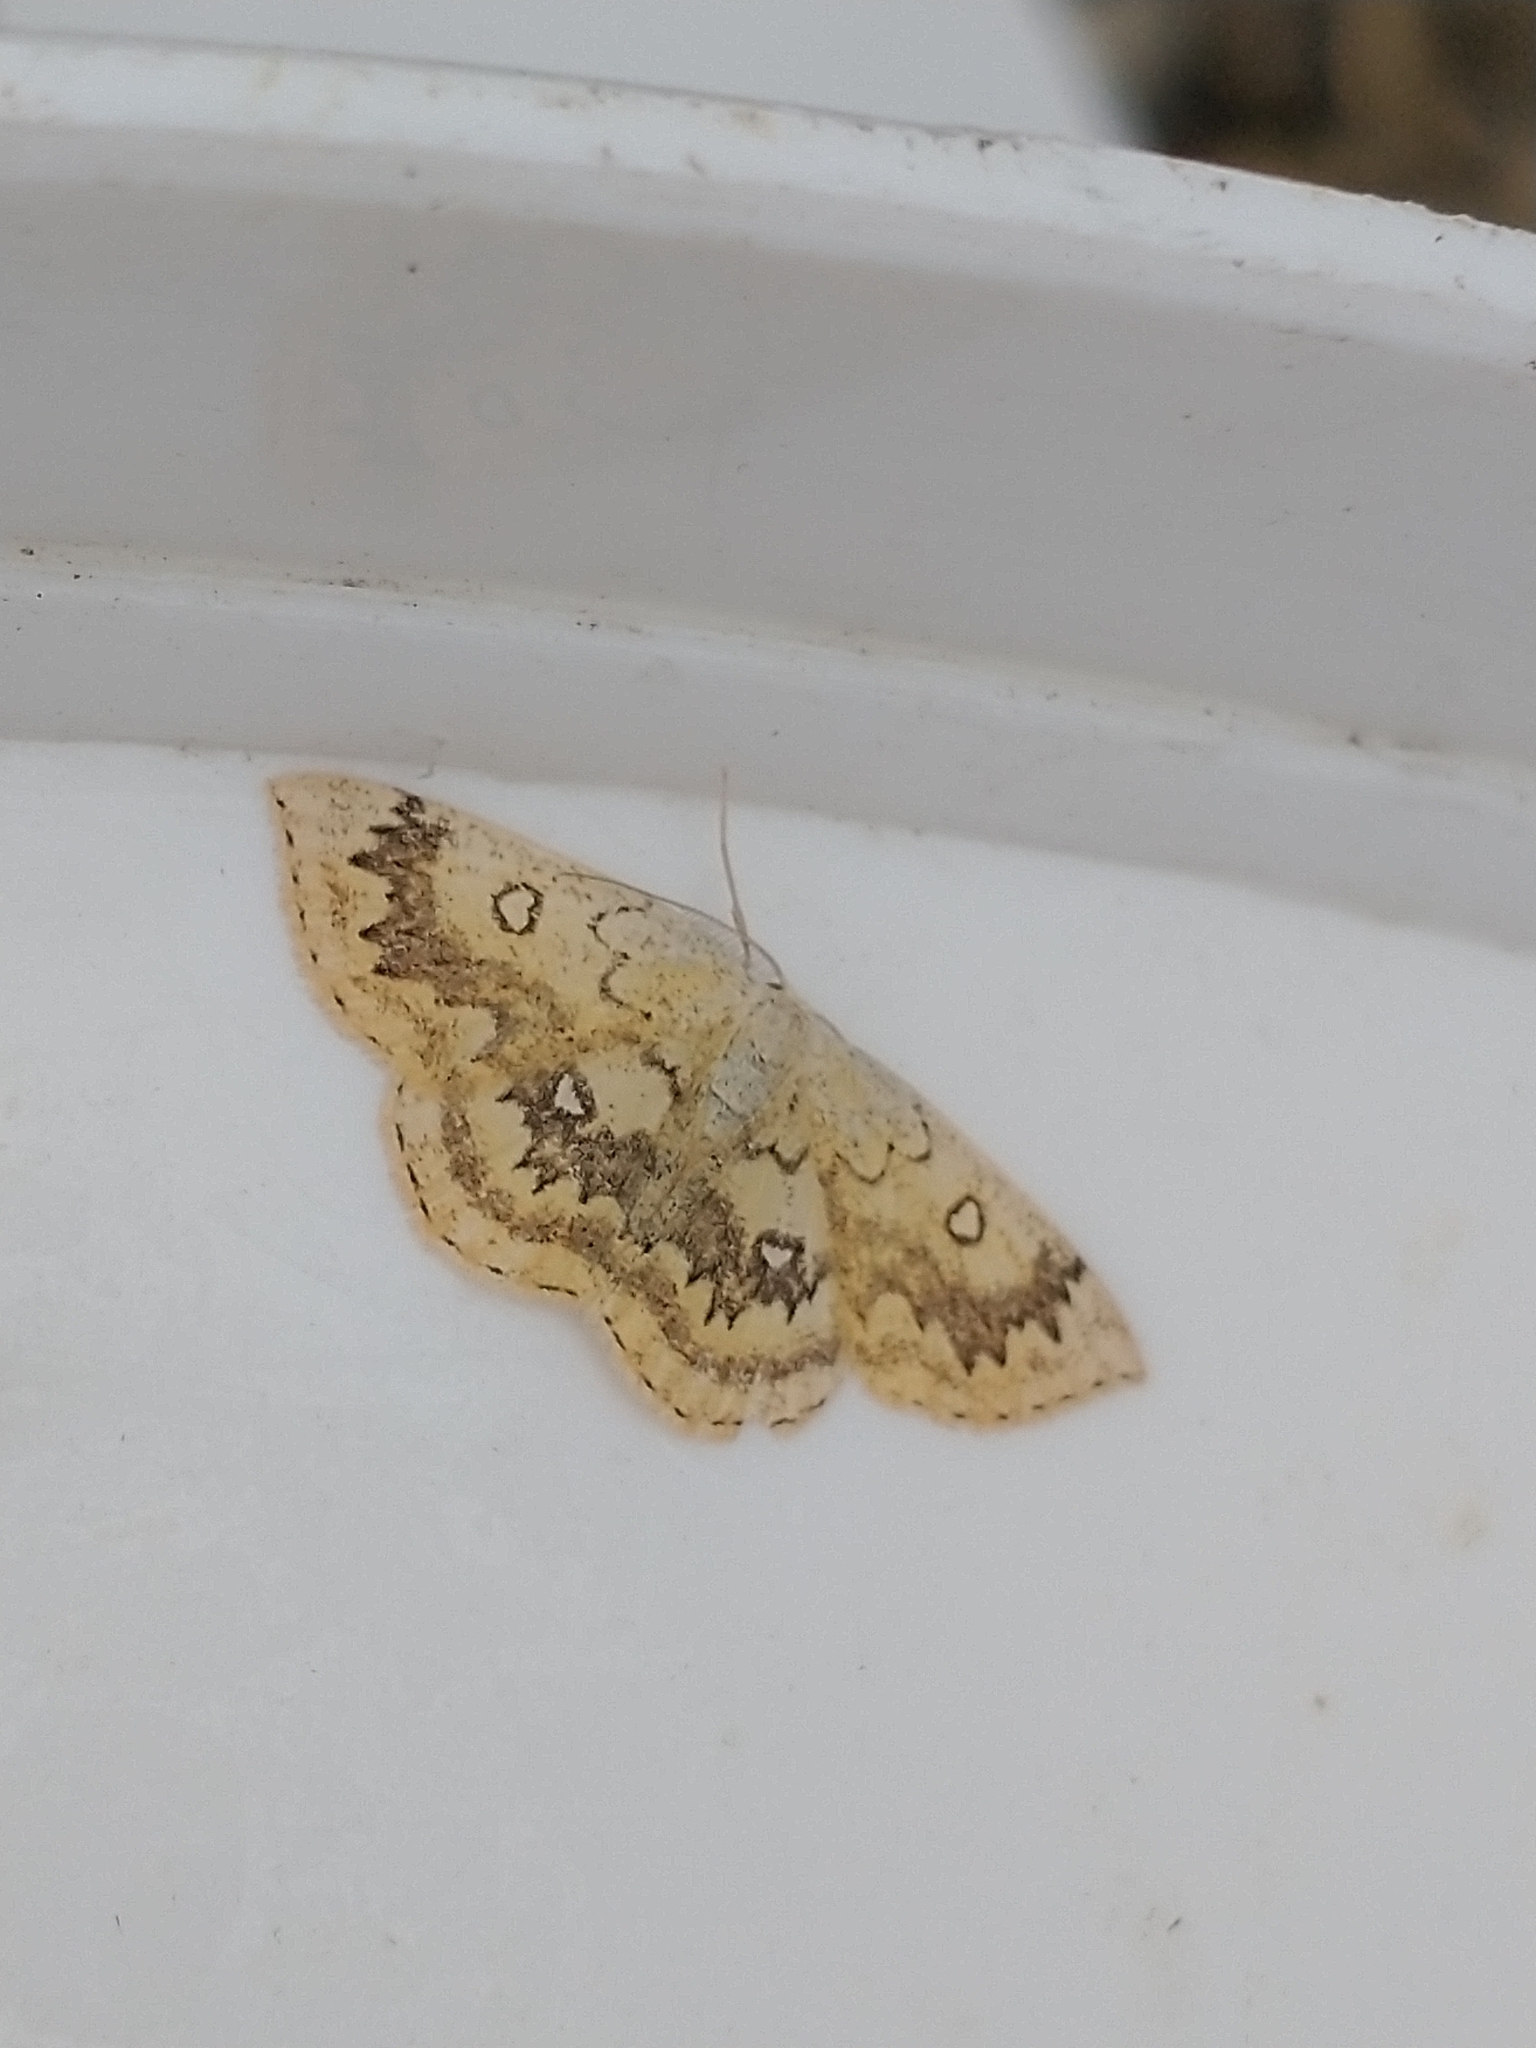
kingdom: Animalia
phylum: Arthropoda
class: Insecta
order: Lepidoptera
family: Geometridae
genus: Cyclophora
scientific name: Cyclophora annularia
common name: Mocha
